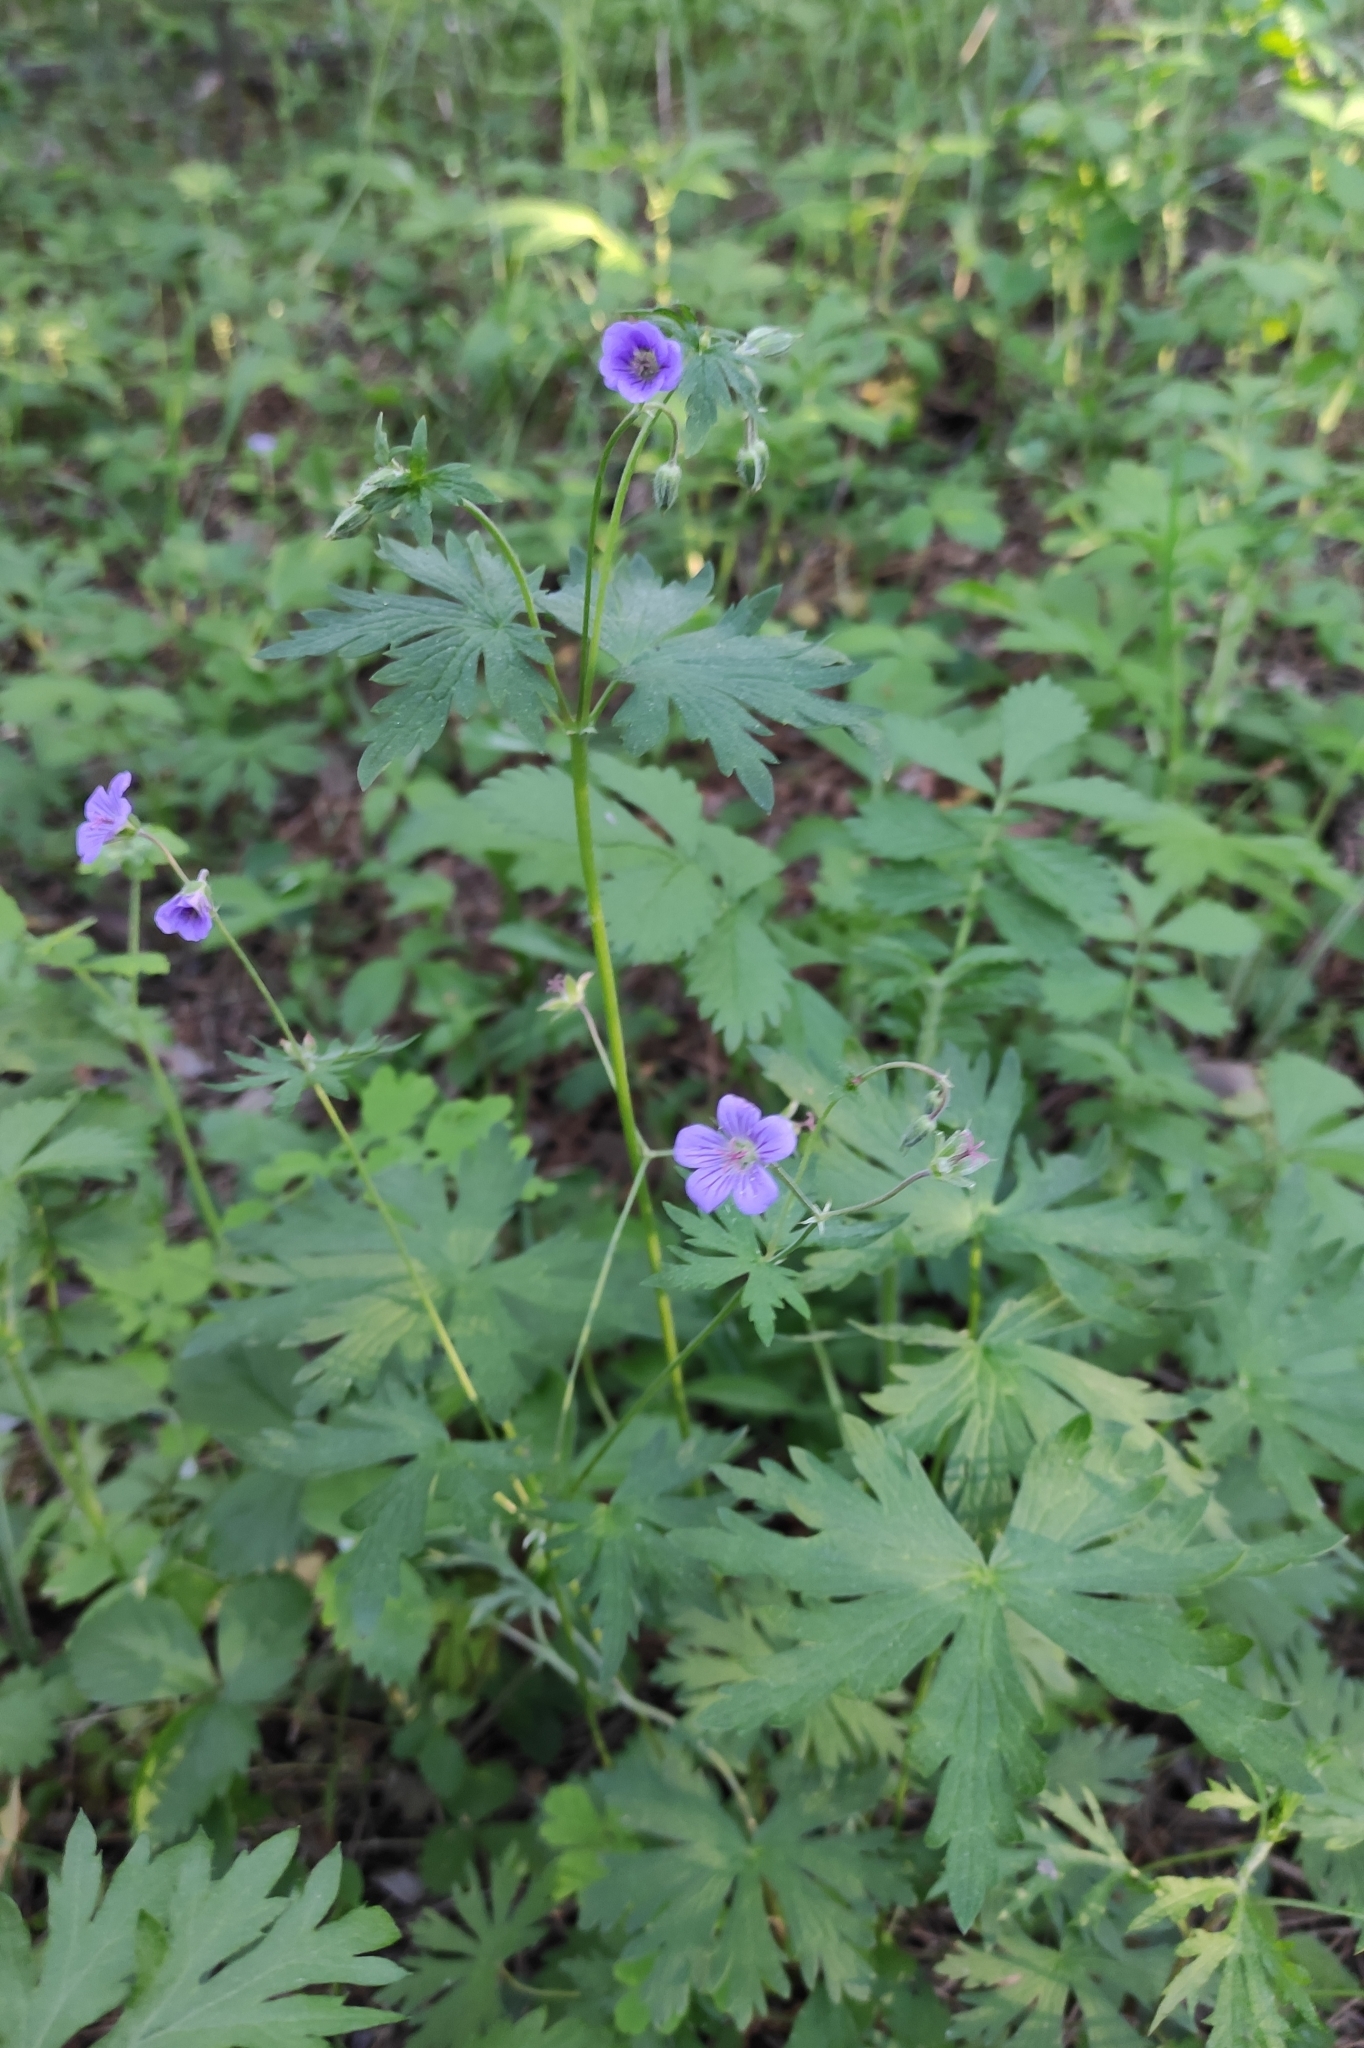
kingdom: Plantae
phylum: Tracheophyta
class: Magnoliopsida
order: Geraniales
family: Geraniaceae
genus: Geranium
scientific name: Geranium pseudosibiricum
